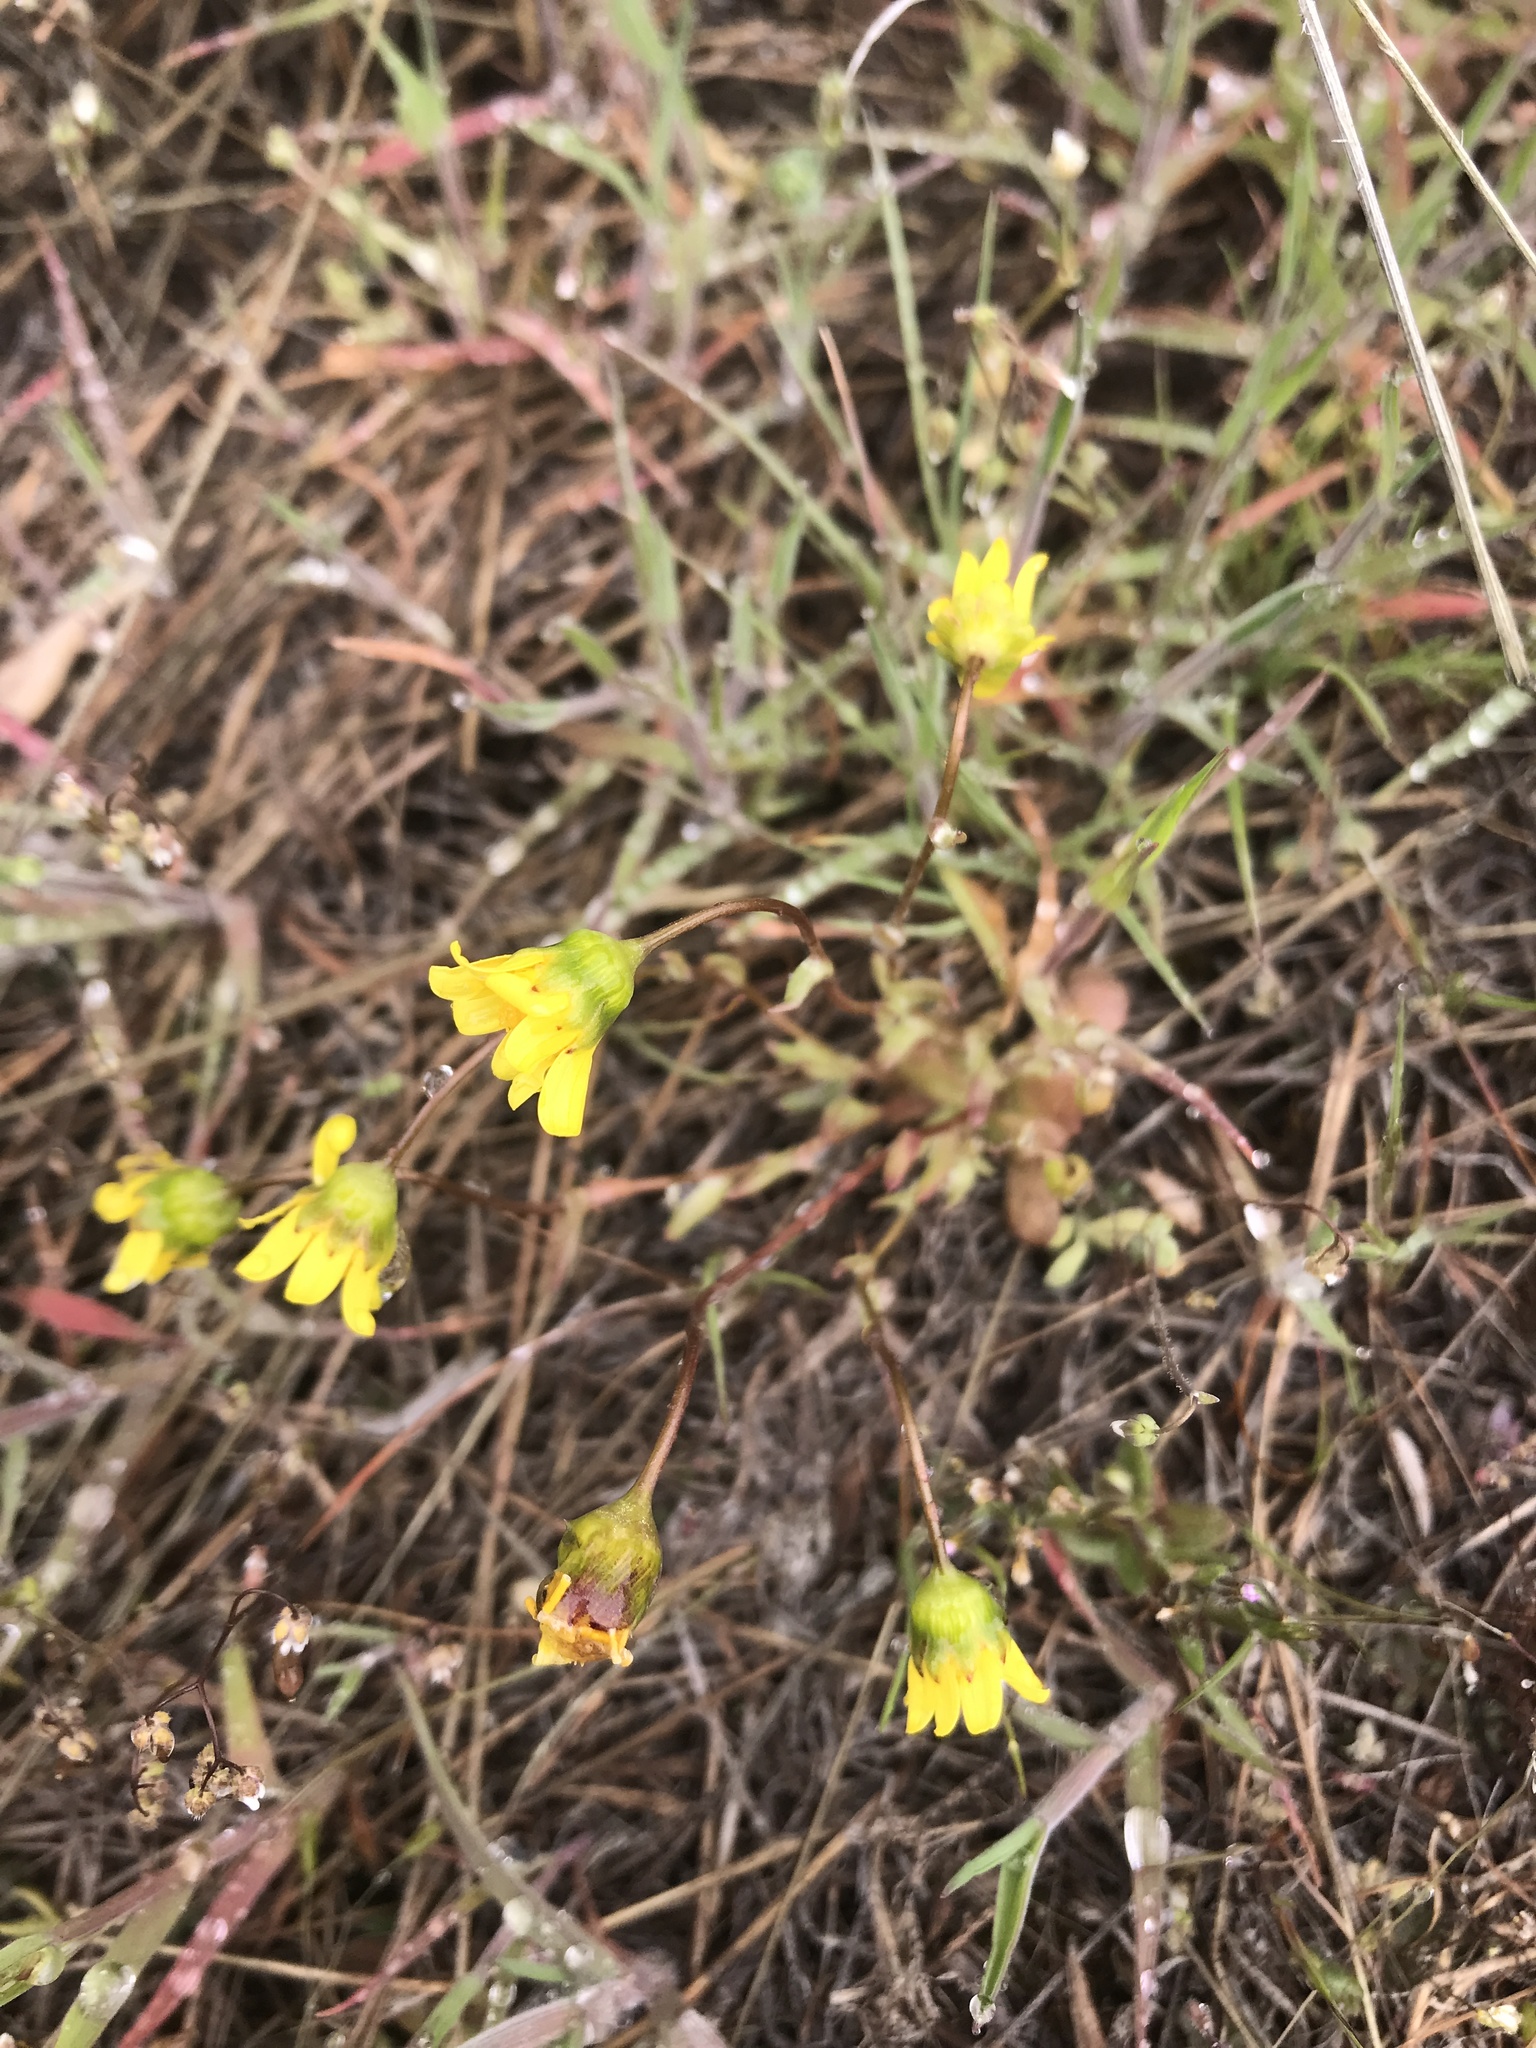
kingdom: Plantae
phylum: Tracheophyta
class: Magnoliopsida
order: Asterales
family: Asteraceae
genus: Crocidium
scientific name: Crocidium multicaule
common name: Common spring gold
